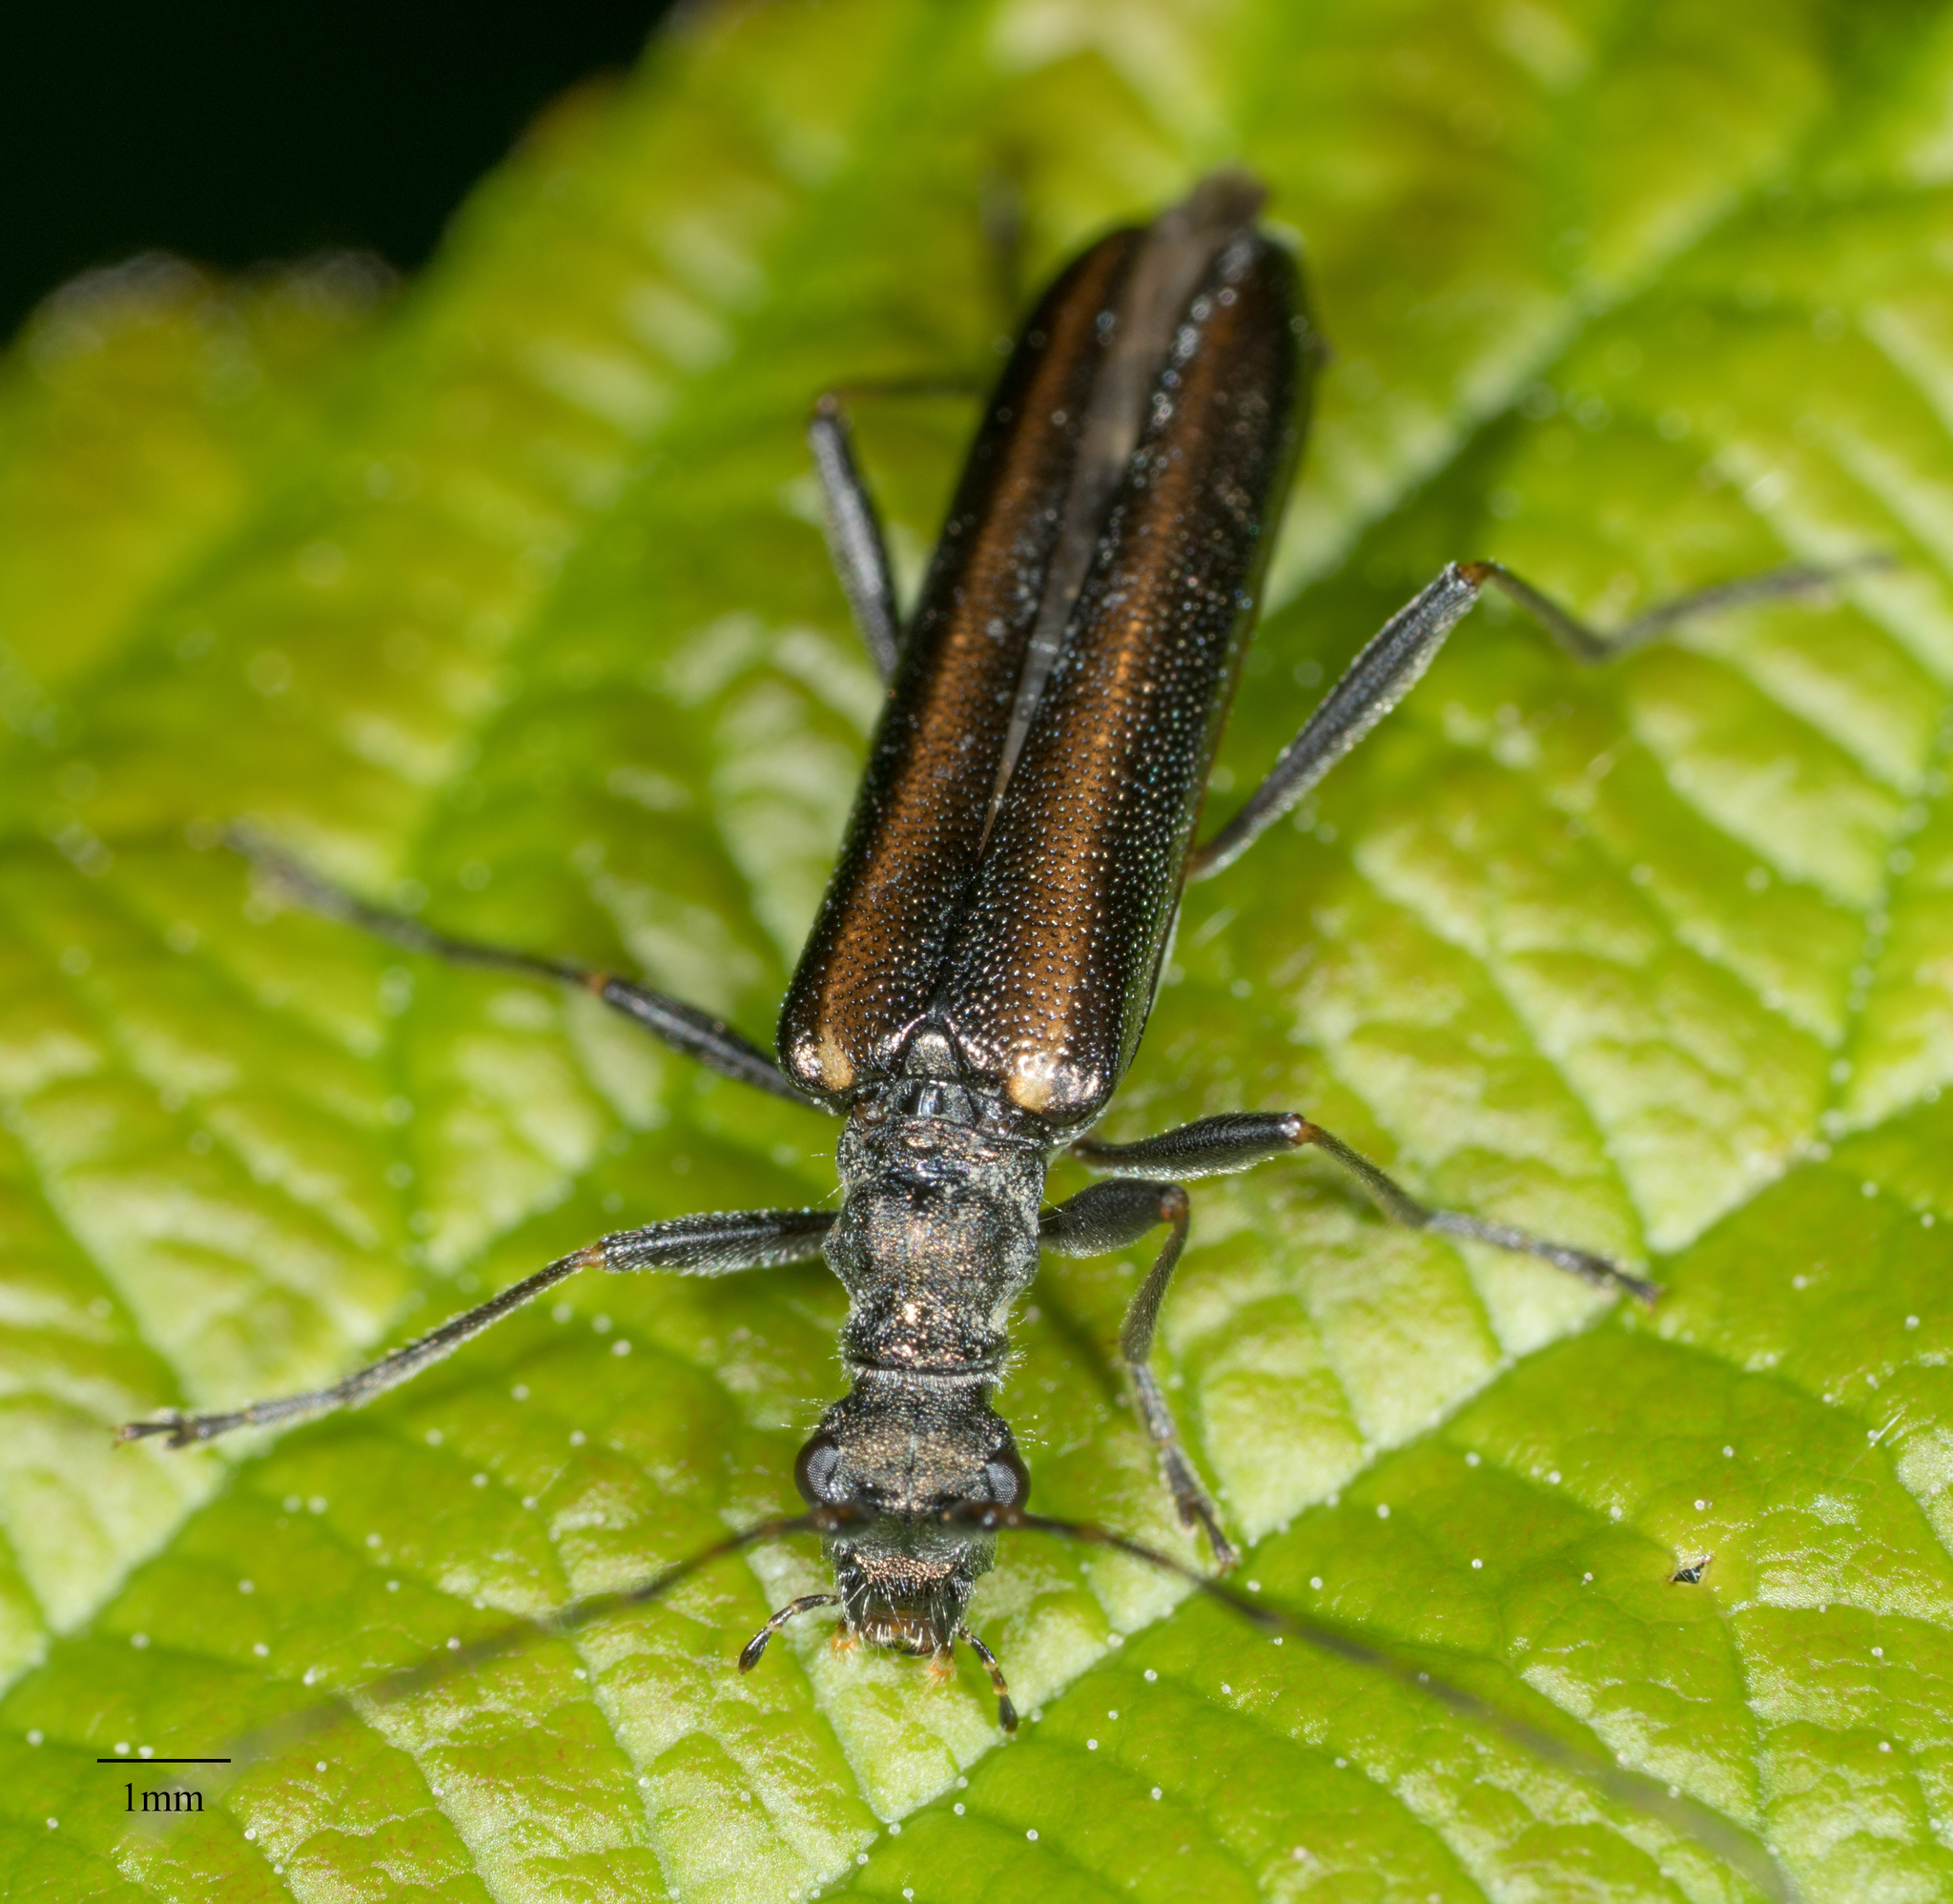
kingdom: Animalia
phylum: Arthropoda
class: Insecta
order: Coleoptera
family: Cerambycidae
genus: Leptalia
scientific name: Leptalia macilenta
